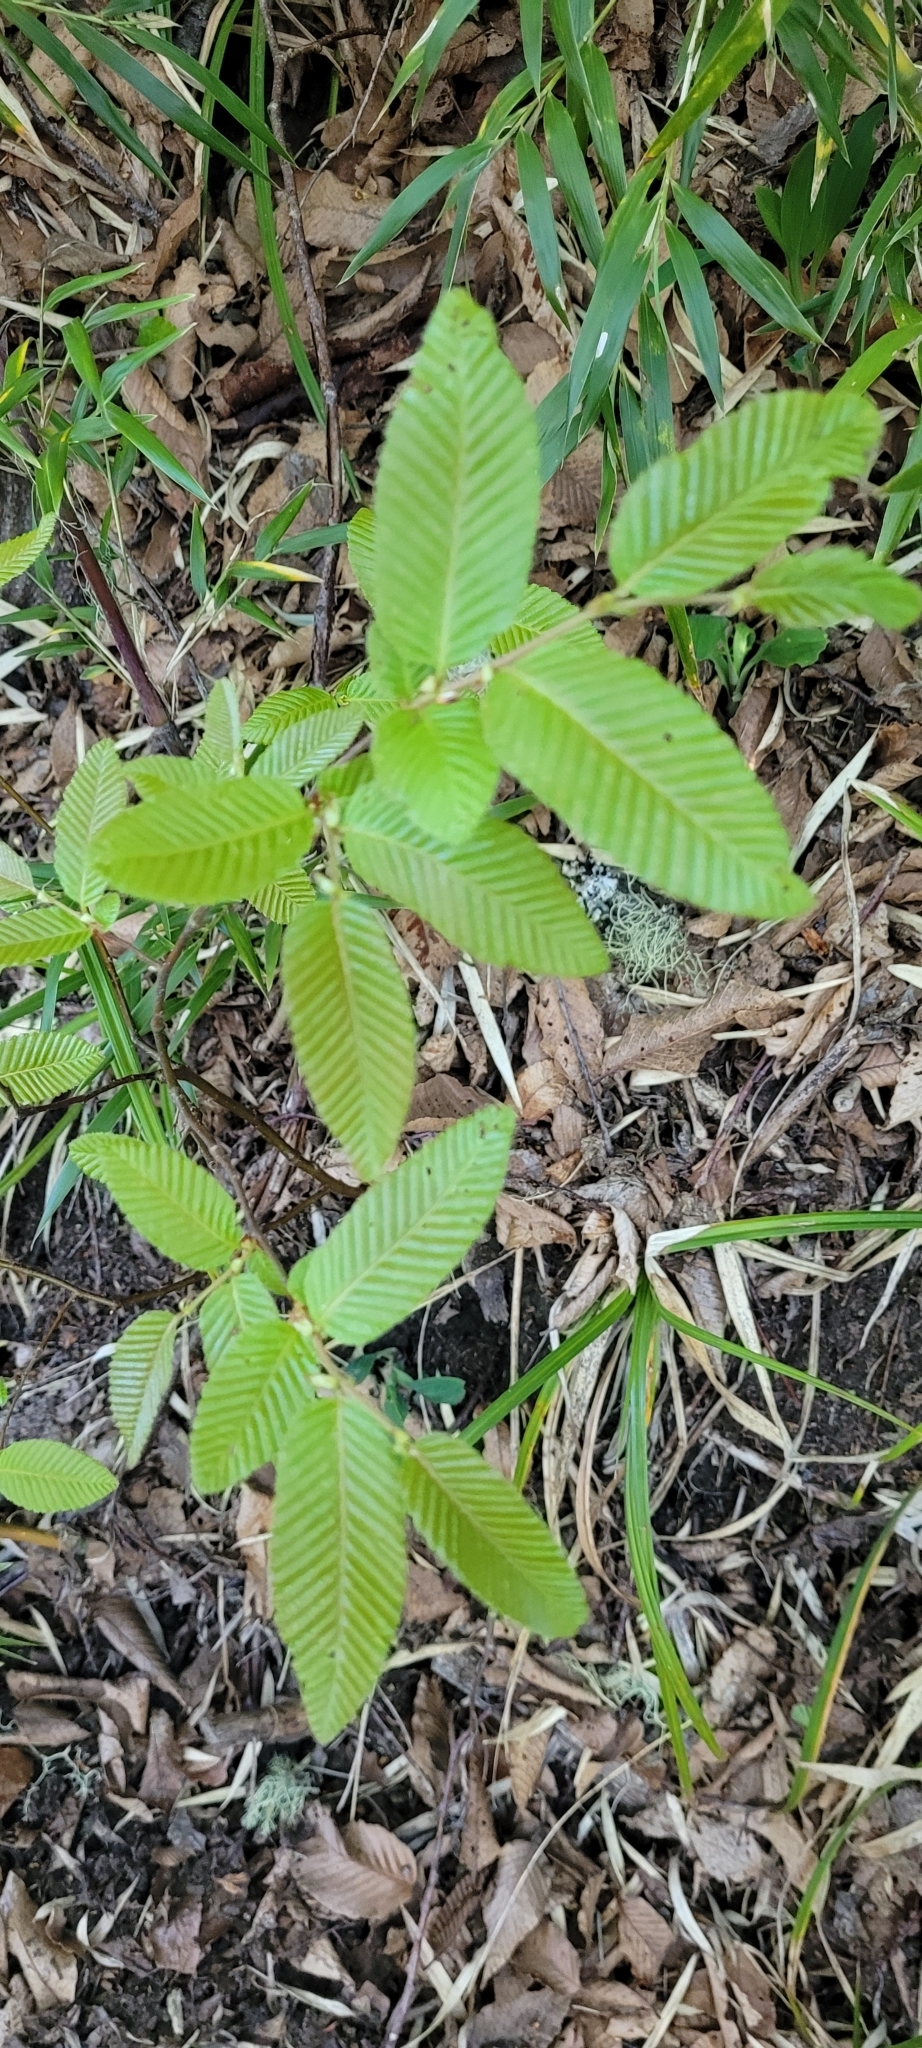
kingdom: Plantae
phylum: Tracheophyta
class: Magnoliopsida
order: Fagales
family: Nothofagaceae
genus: Nothofagus
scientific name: Nothofagus alpina
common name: Rauli
